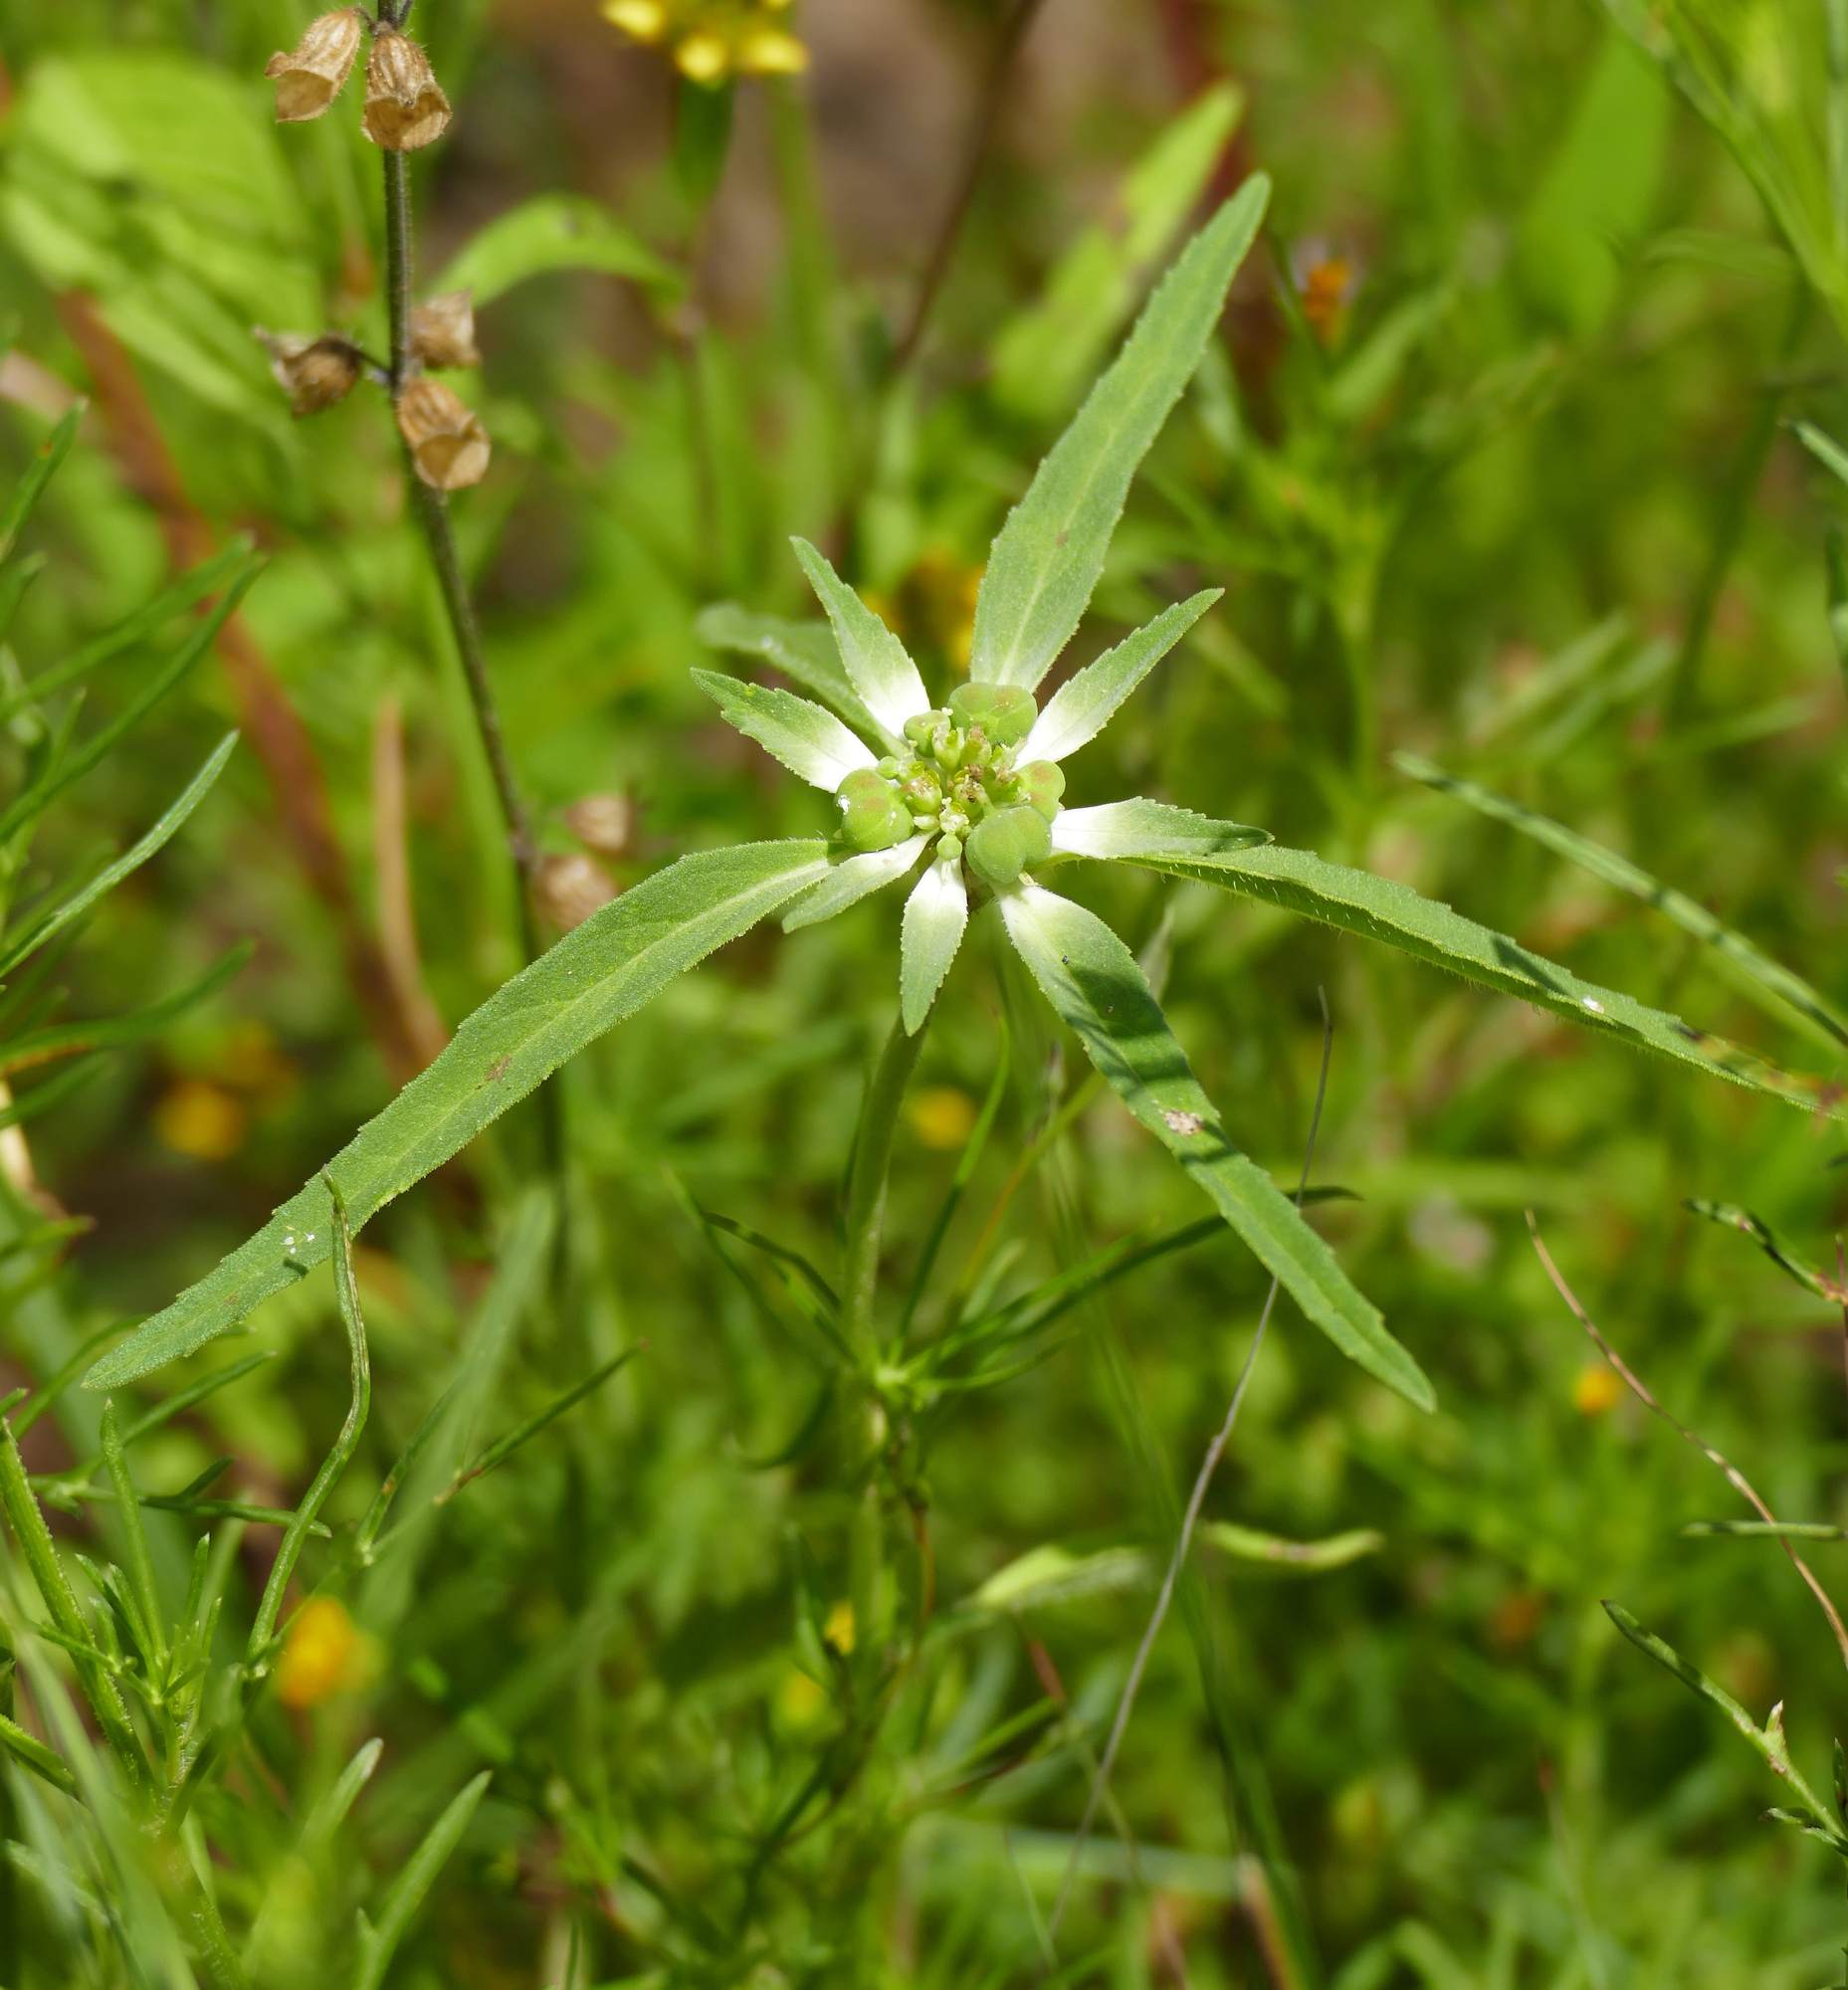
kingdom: Plantae
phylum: Tracheophyta
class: Magnoliopsida
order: Malpighiales
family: Euphorbiaceae
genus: Euphorbia
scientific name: Euphorbia davidii
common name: David's spurge
